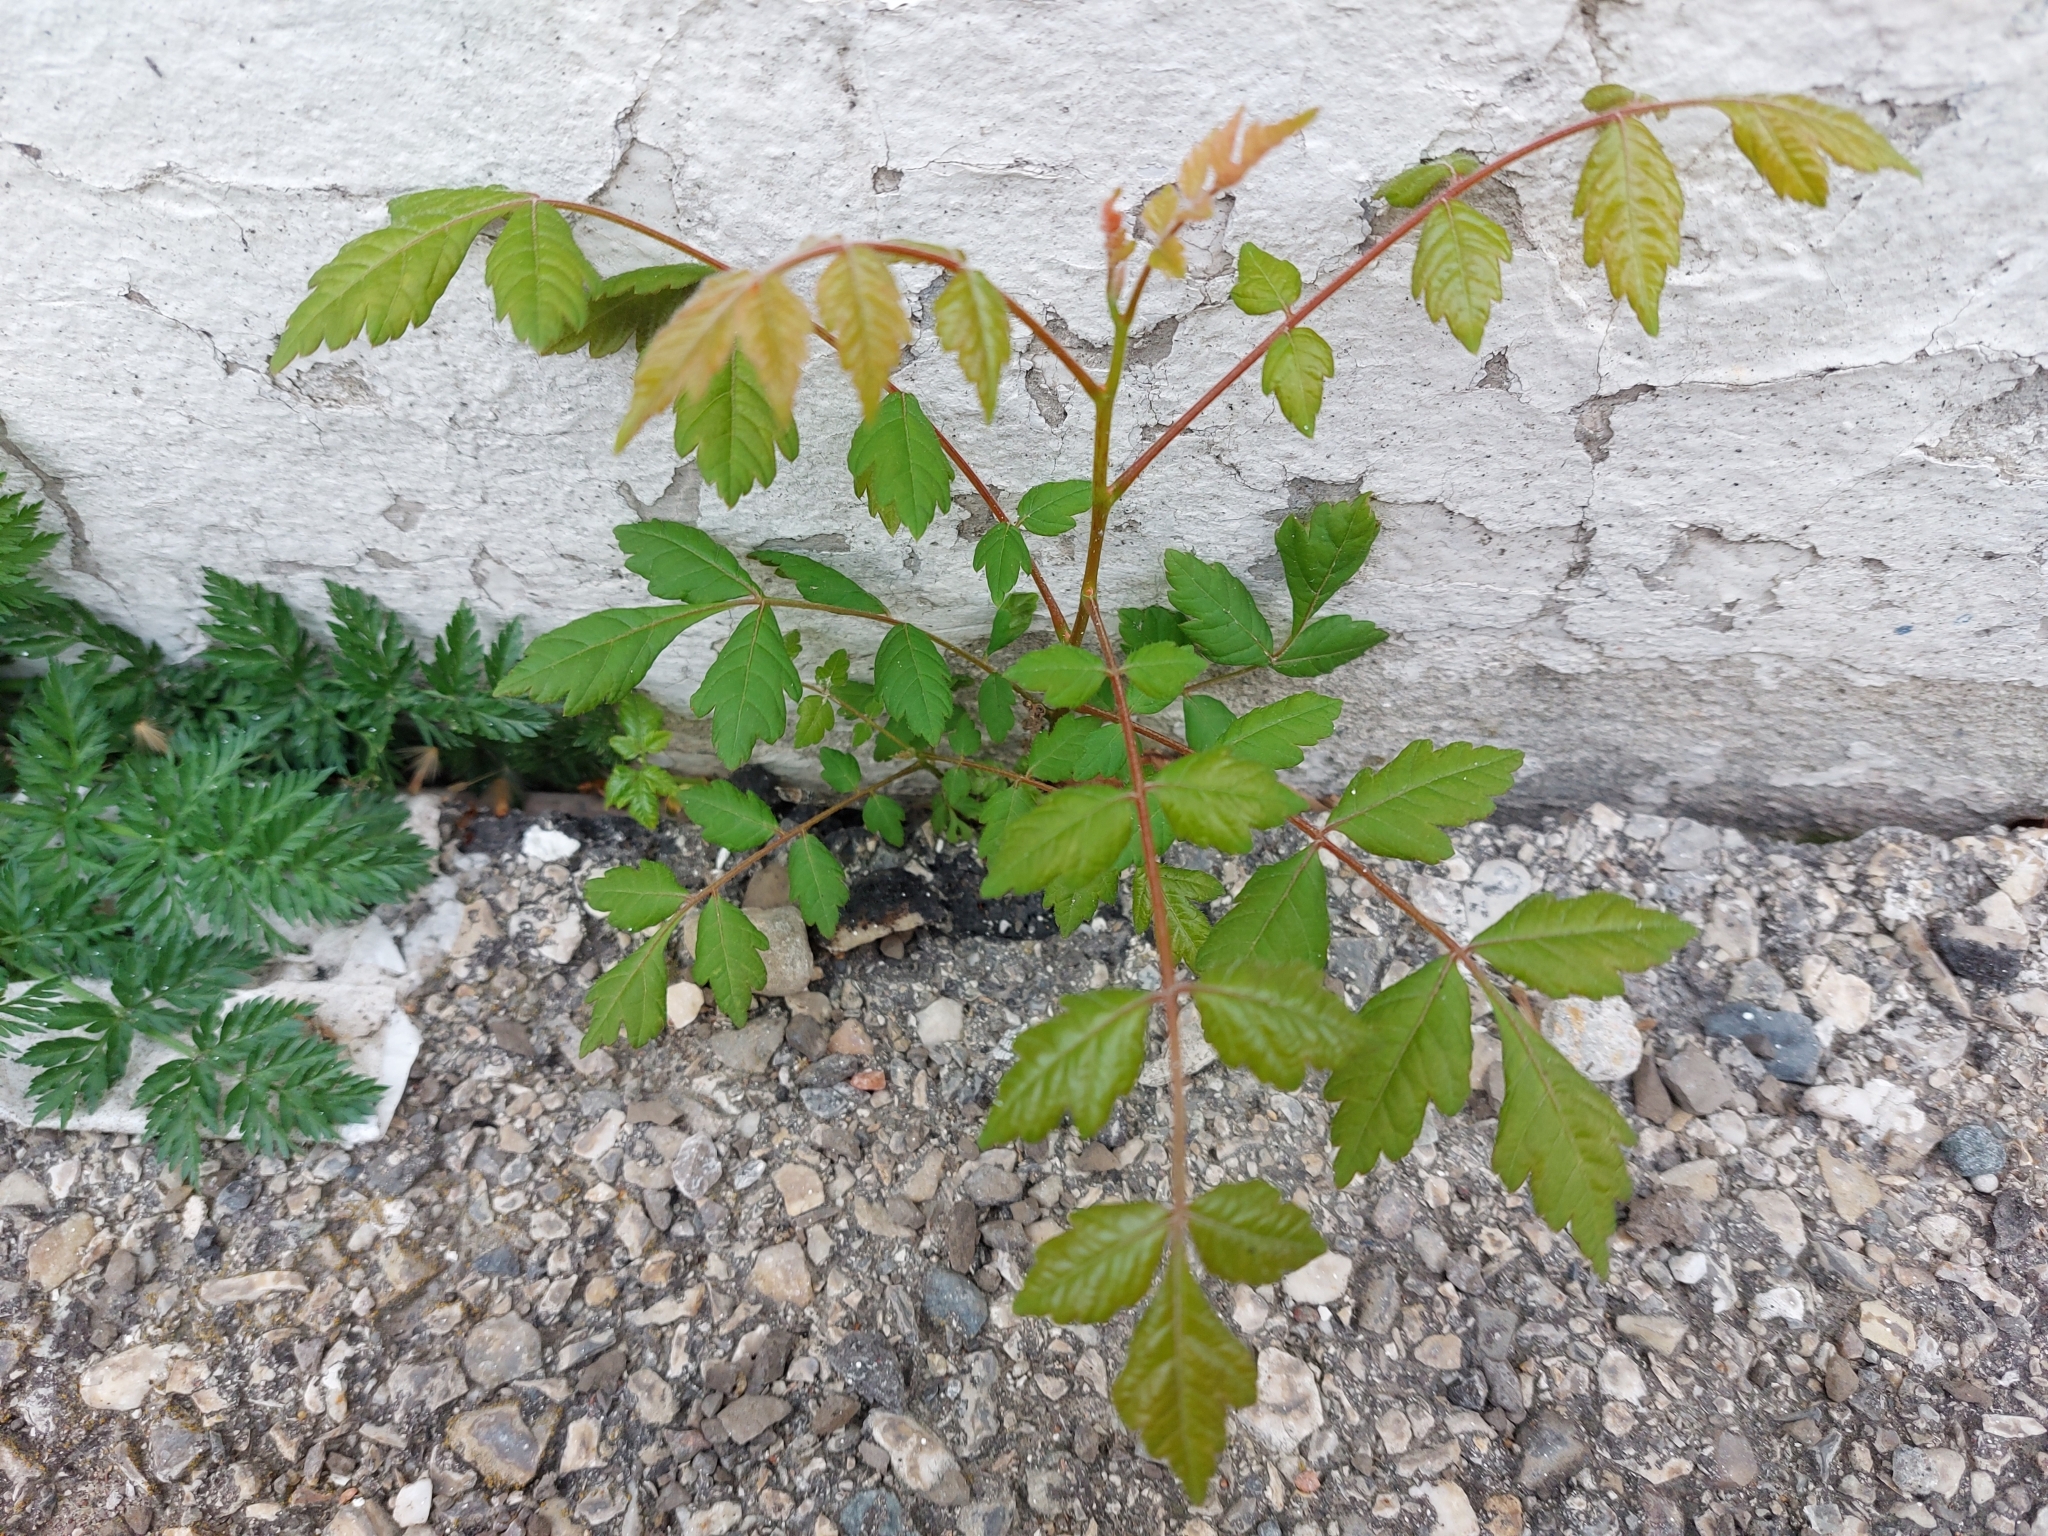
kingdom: Plantae
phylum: Tracheophyta
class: Magnoliopsida
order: Sapindales
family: Sapindaceae
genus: Koelreuteria
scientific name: Koelreuteria paniculata
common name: Pride-of-india
